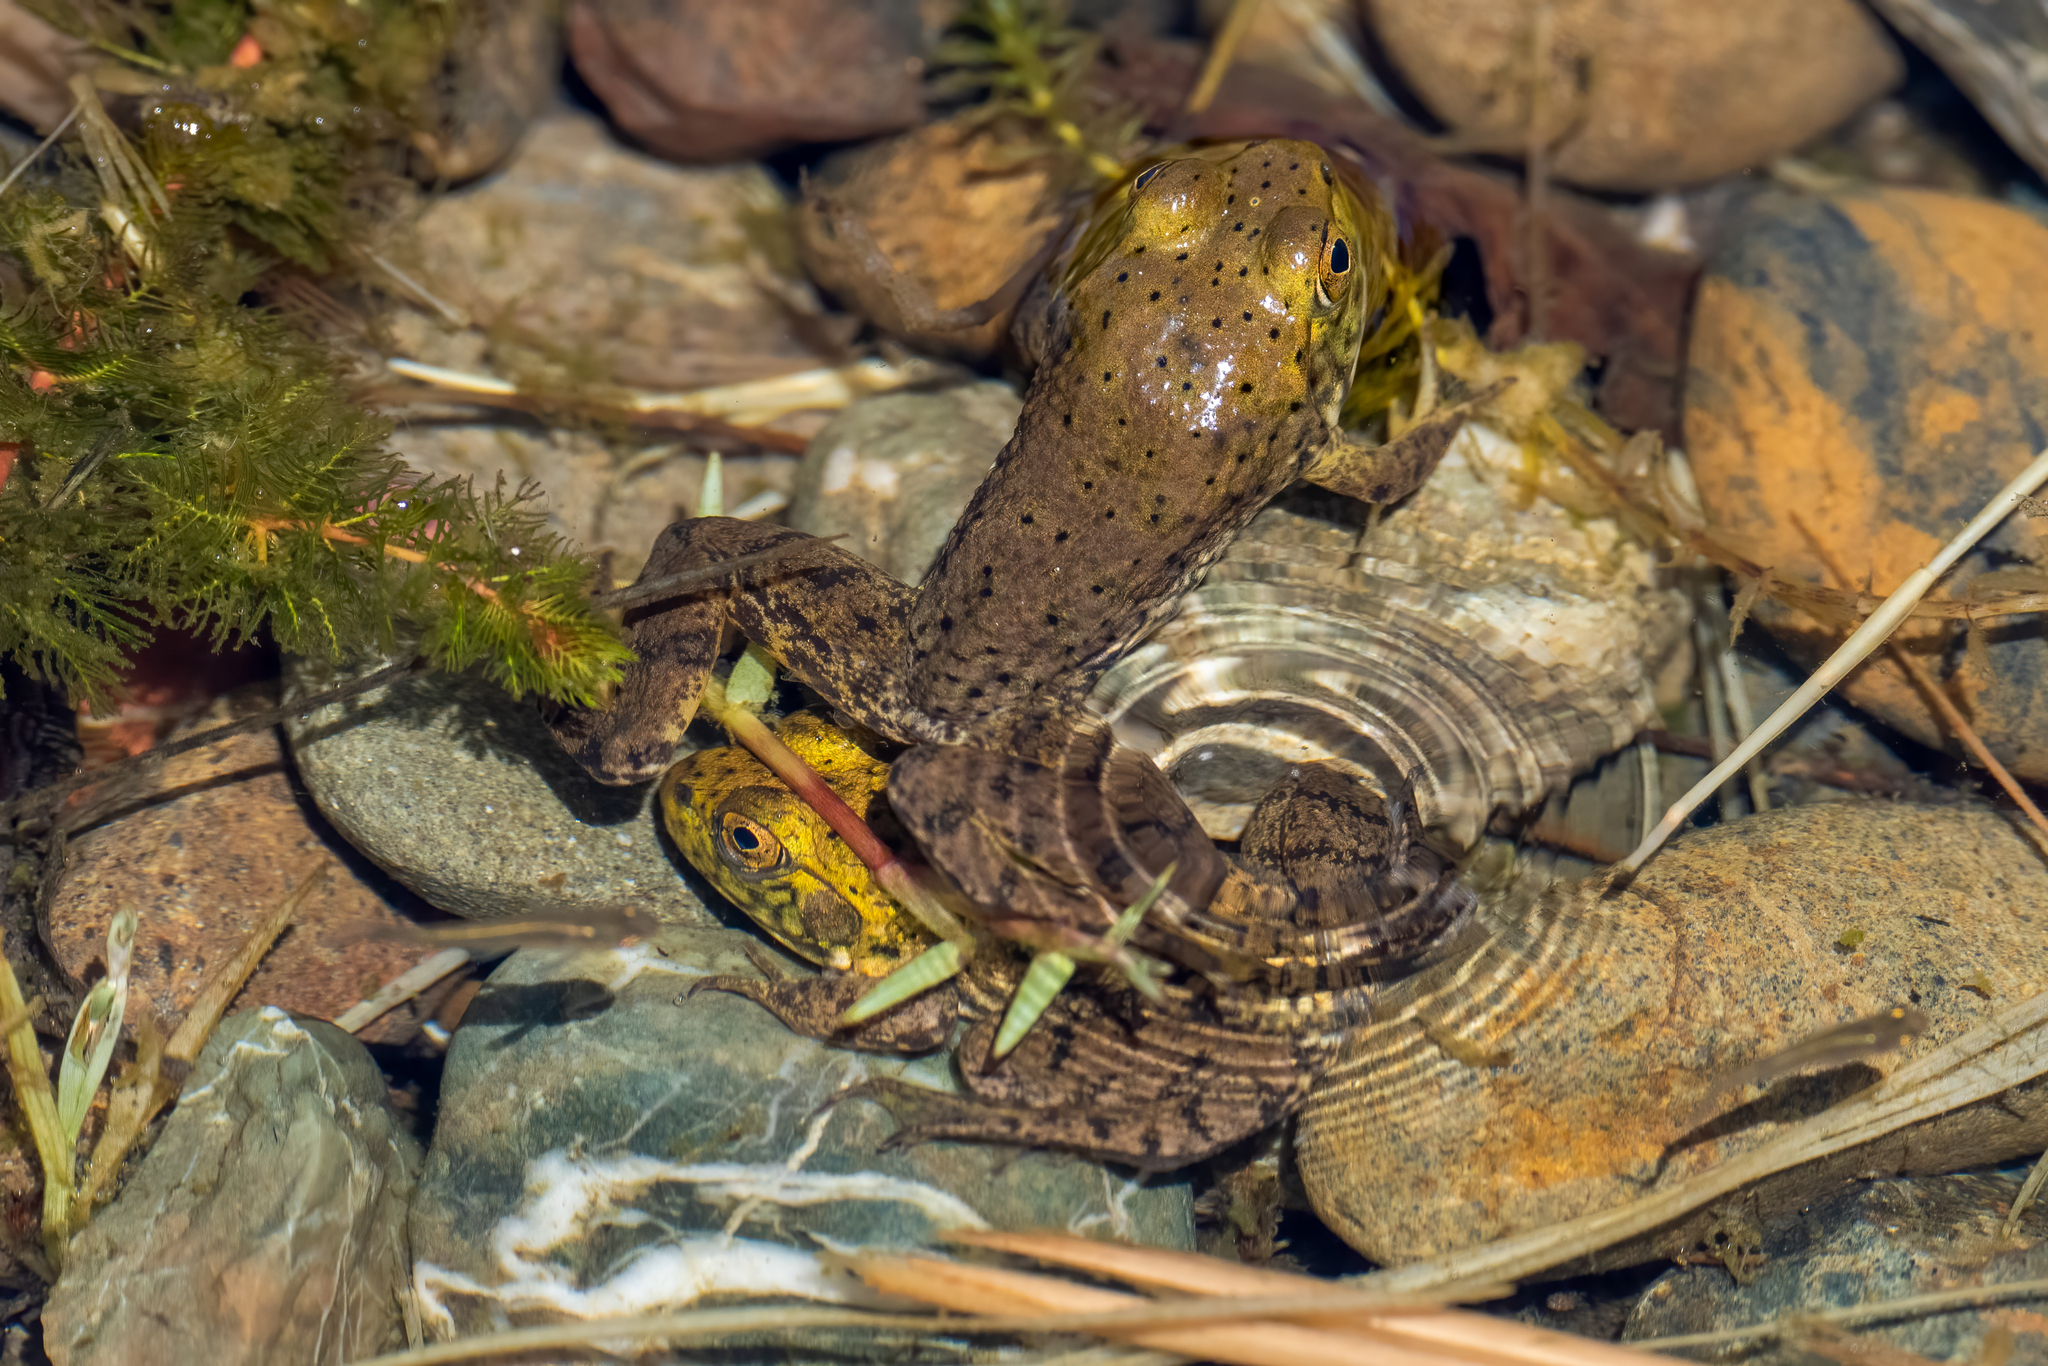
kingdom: Animalia
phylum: Chordata
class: Amphibia
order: Anura
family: Ranidae
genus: Lithobates
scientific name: Lithobates catesbeianus
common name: American bullfrog
